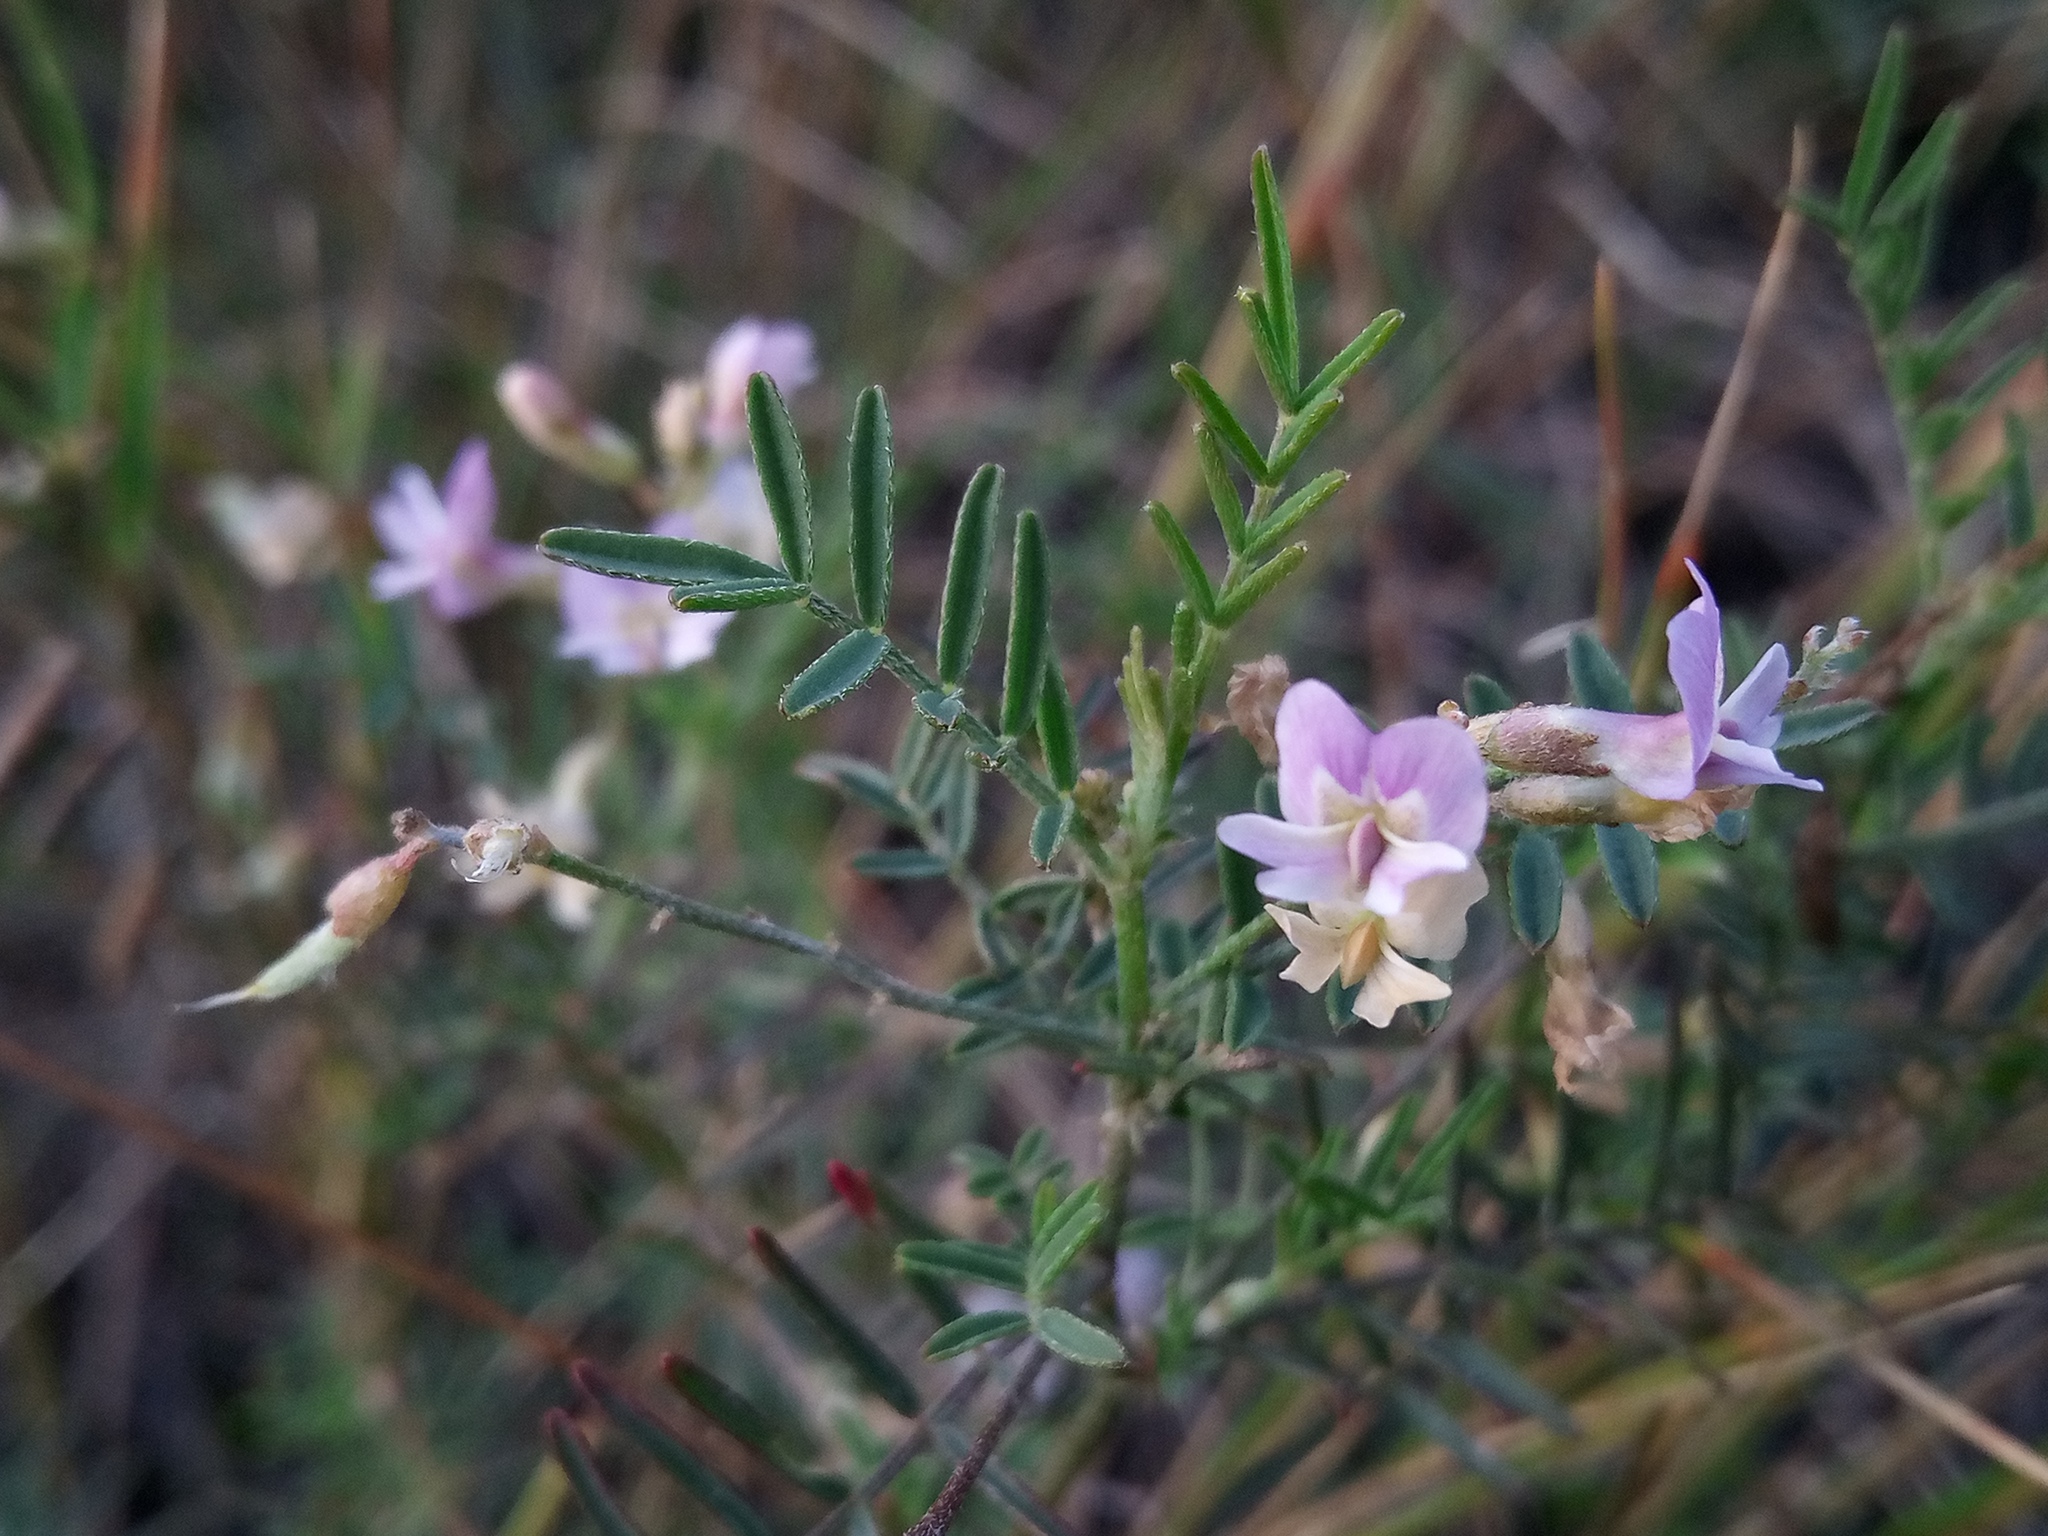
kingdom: Plantae
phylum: Tracheophyta
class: Magnoliopsida
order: Fabales
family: Fabaceae
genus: Astragalus
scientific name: Astragalus austriacus
